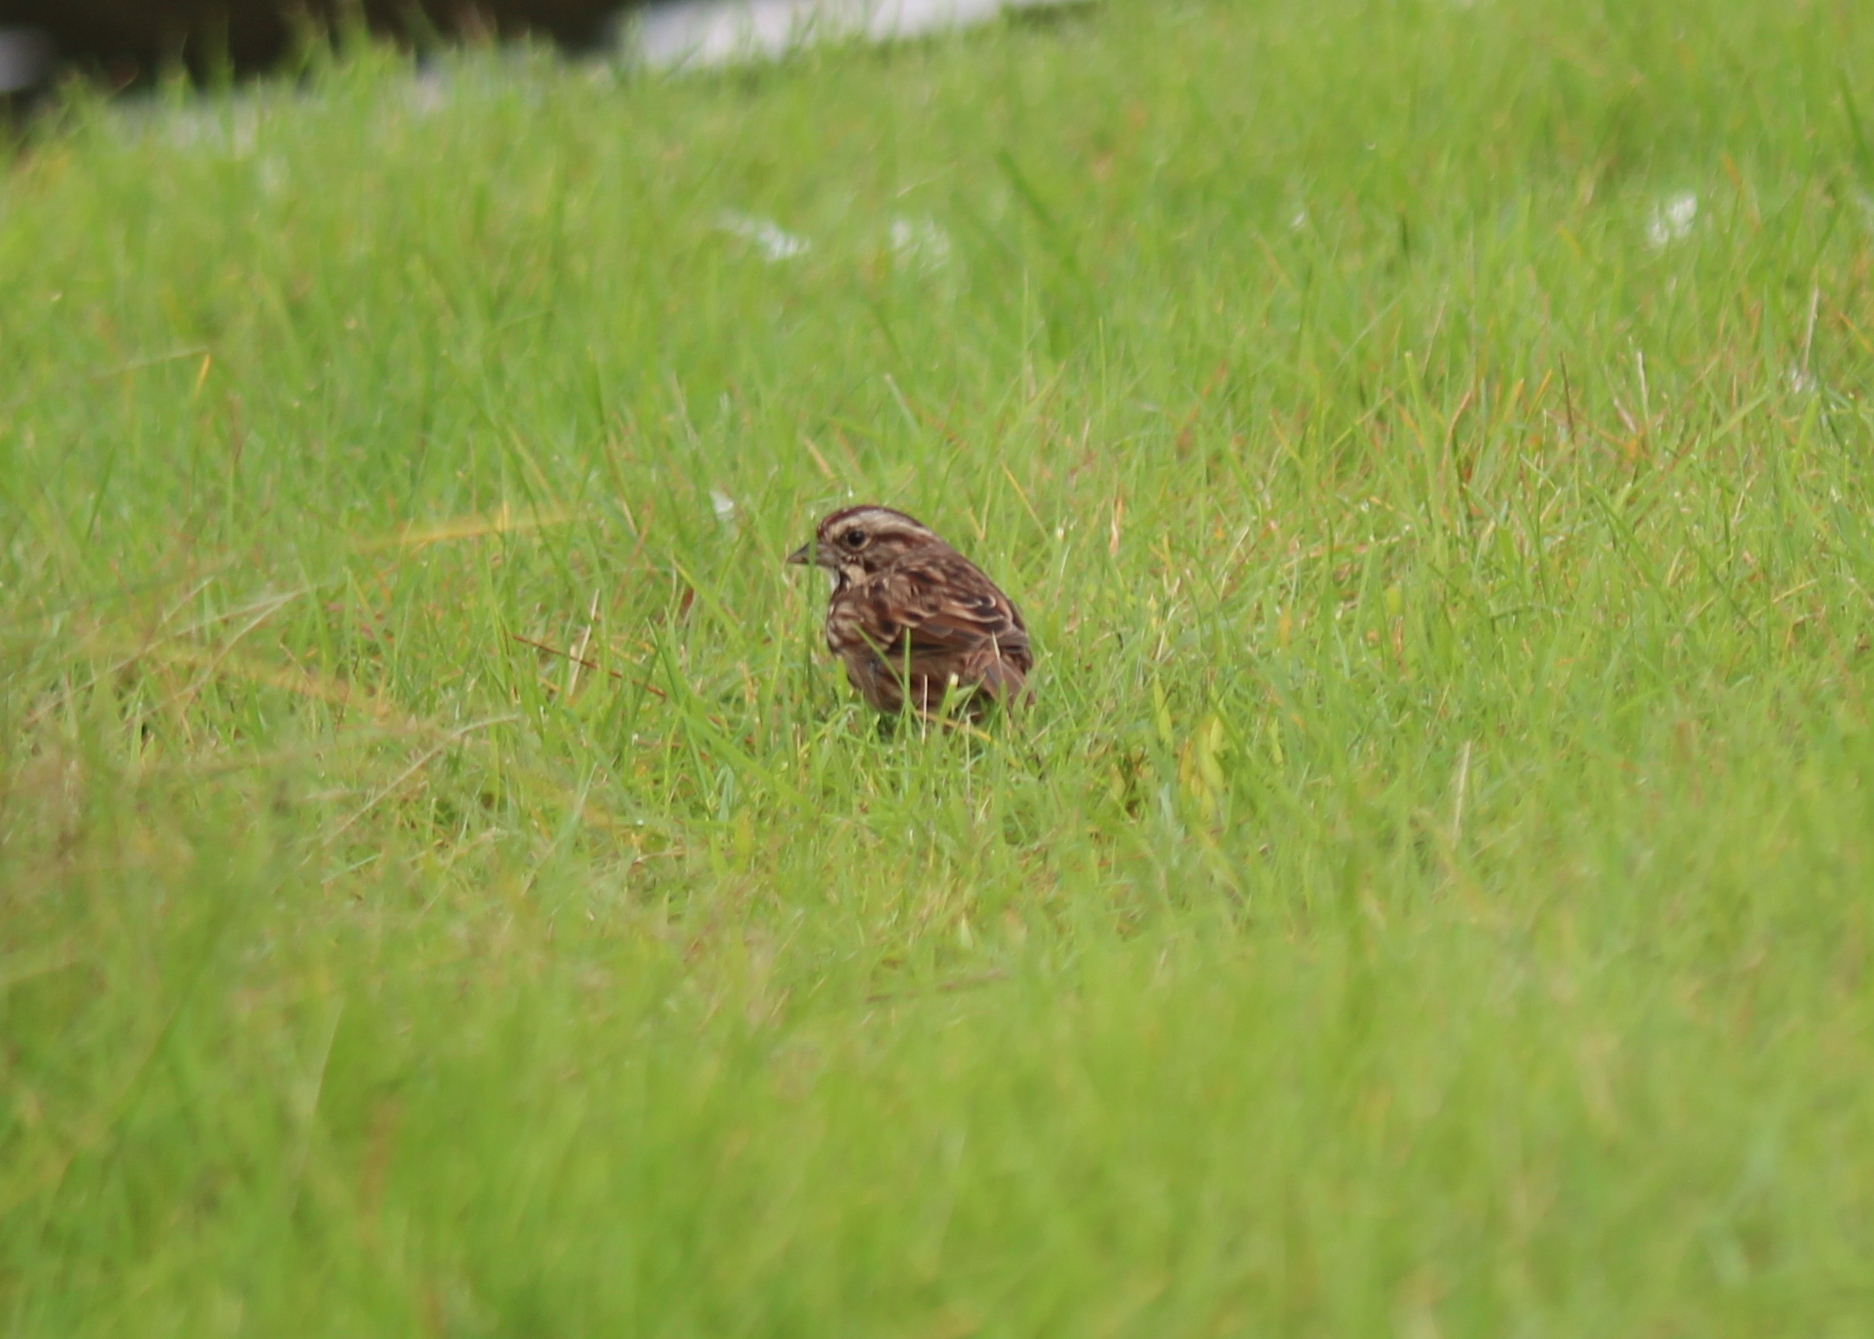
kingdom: Animalia
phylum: Chordata
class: Aves
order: Passeriformes
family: Passerellidae
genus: Melospiza
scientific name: Melospiza melodia
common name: Song sparrow
